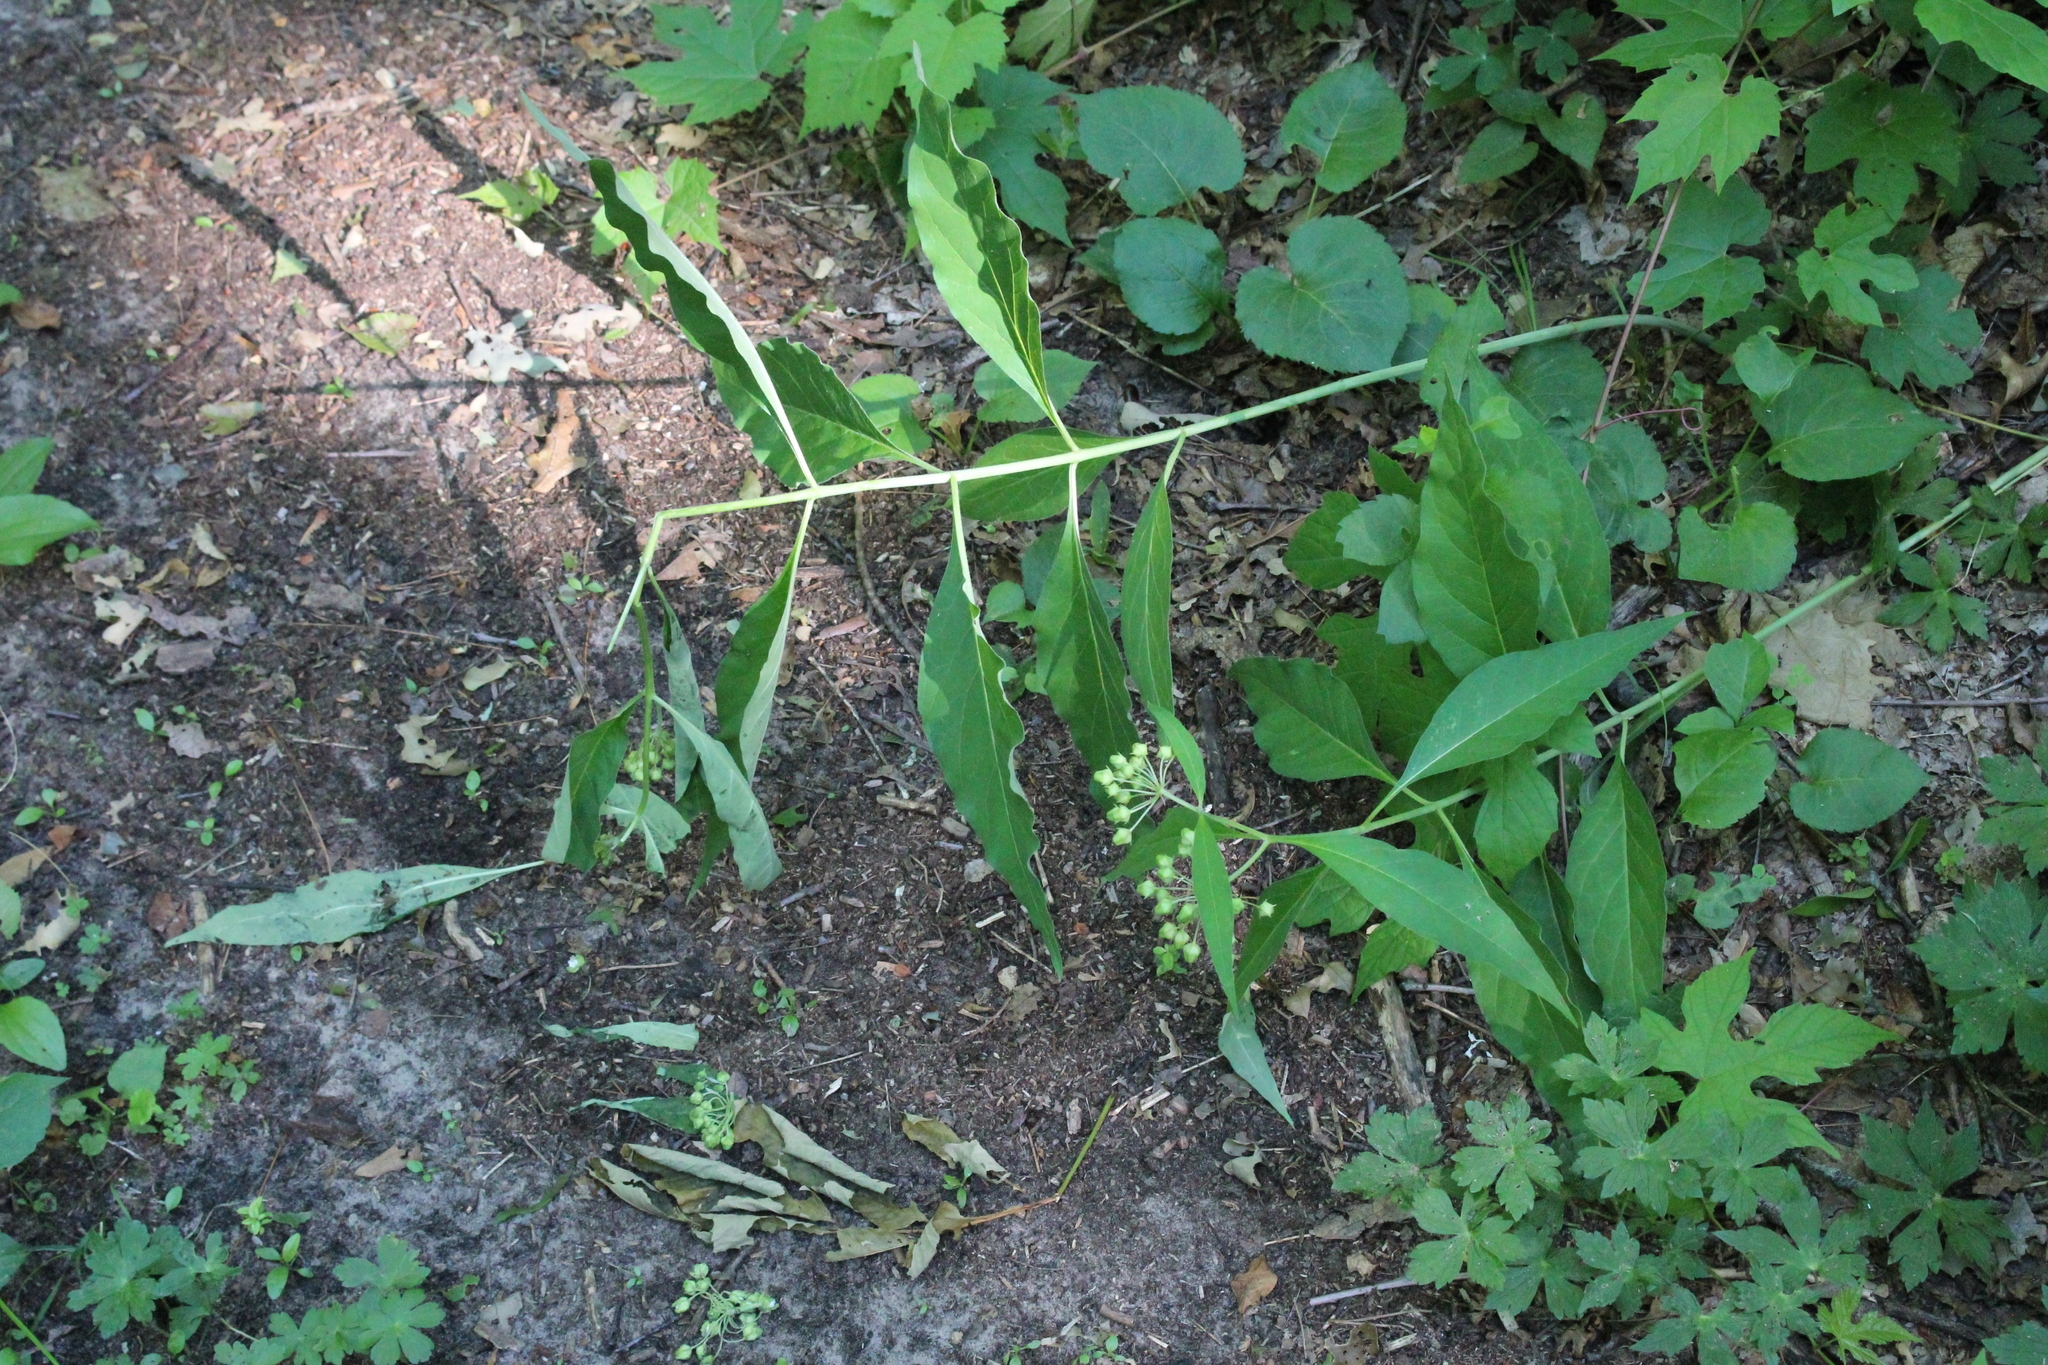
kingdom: Plantae
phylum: Tracheophyta
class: Magnoliopsida
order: Gentianales
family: Apocynaceae
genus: Asclepias
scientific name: Asclepias exaltata
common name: Poke milkweed
